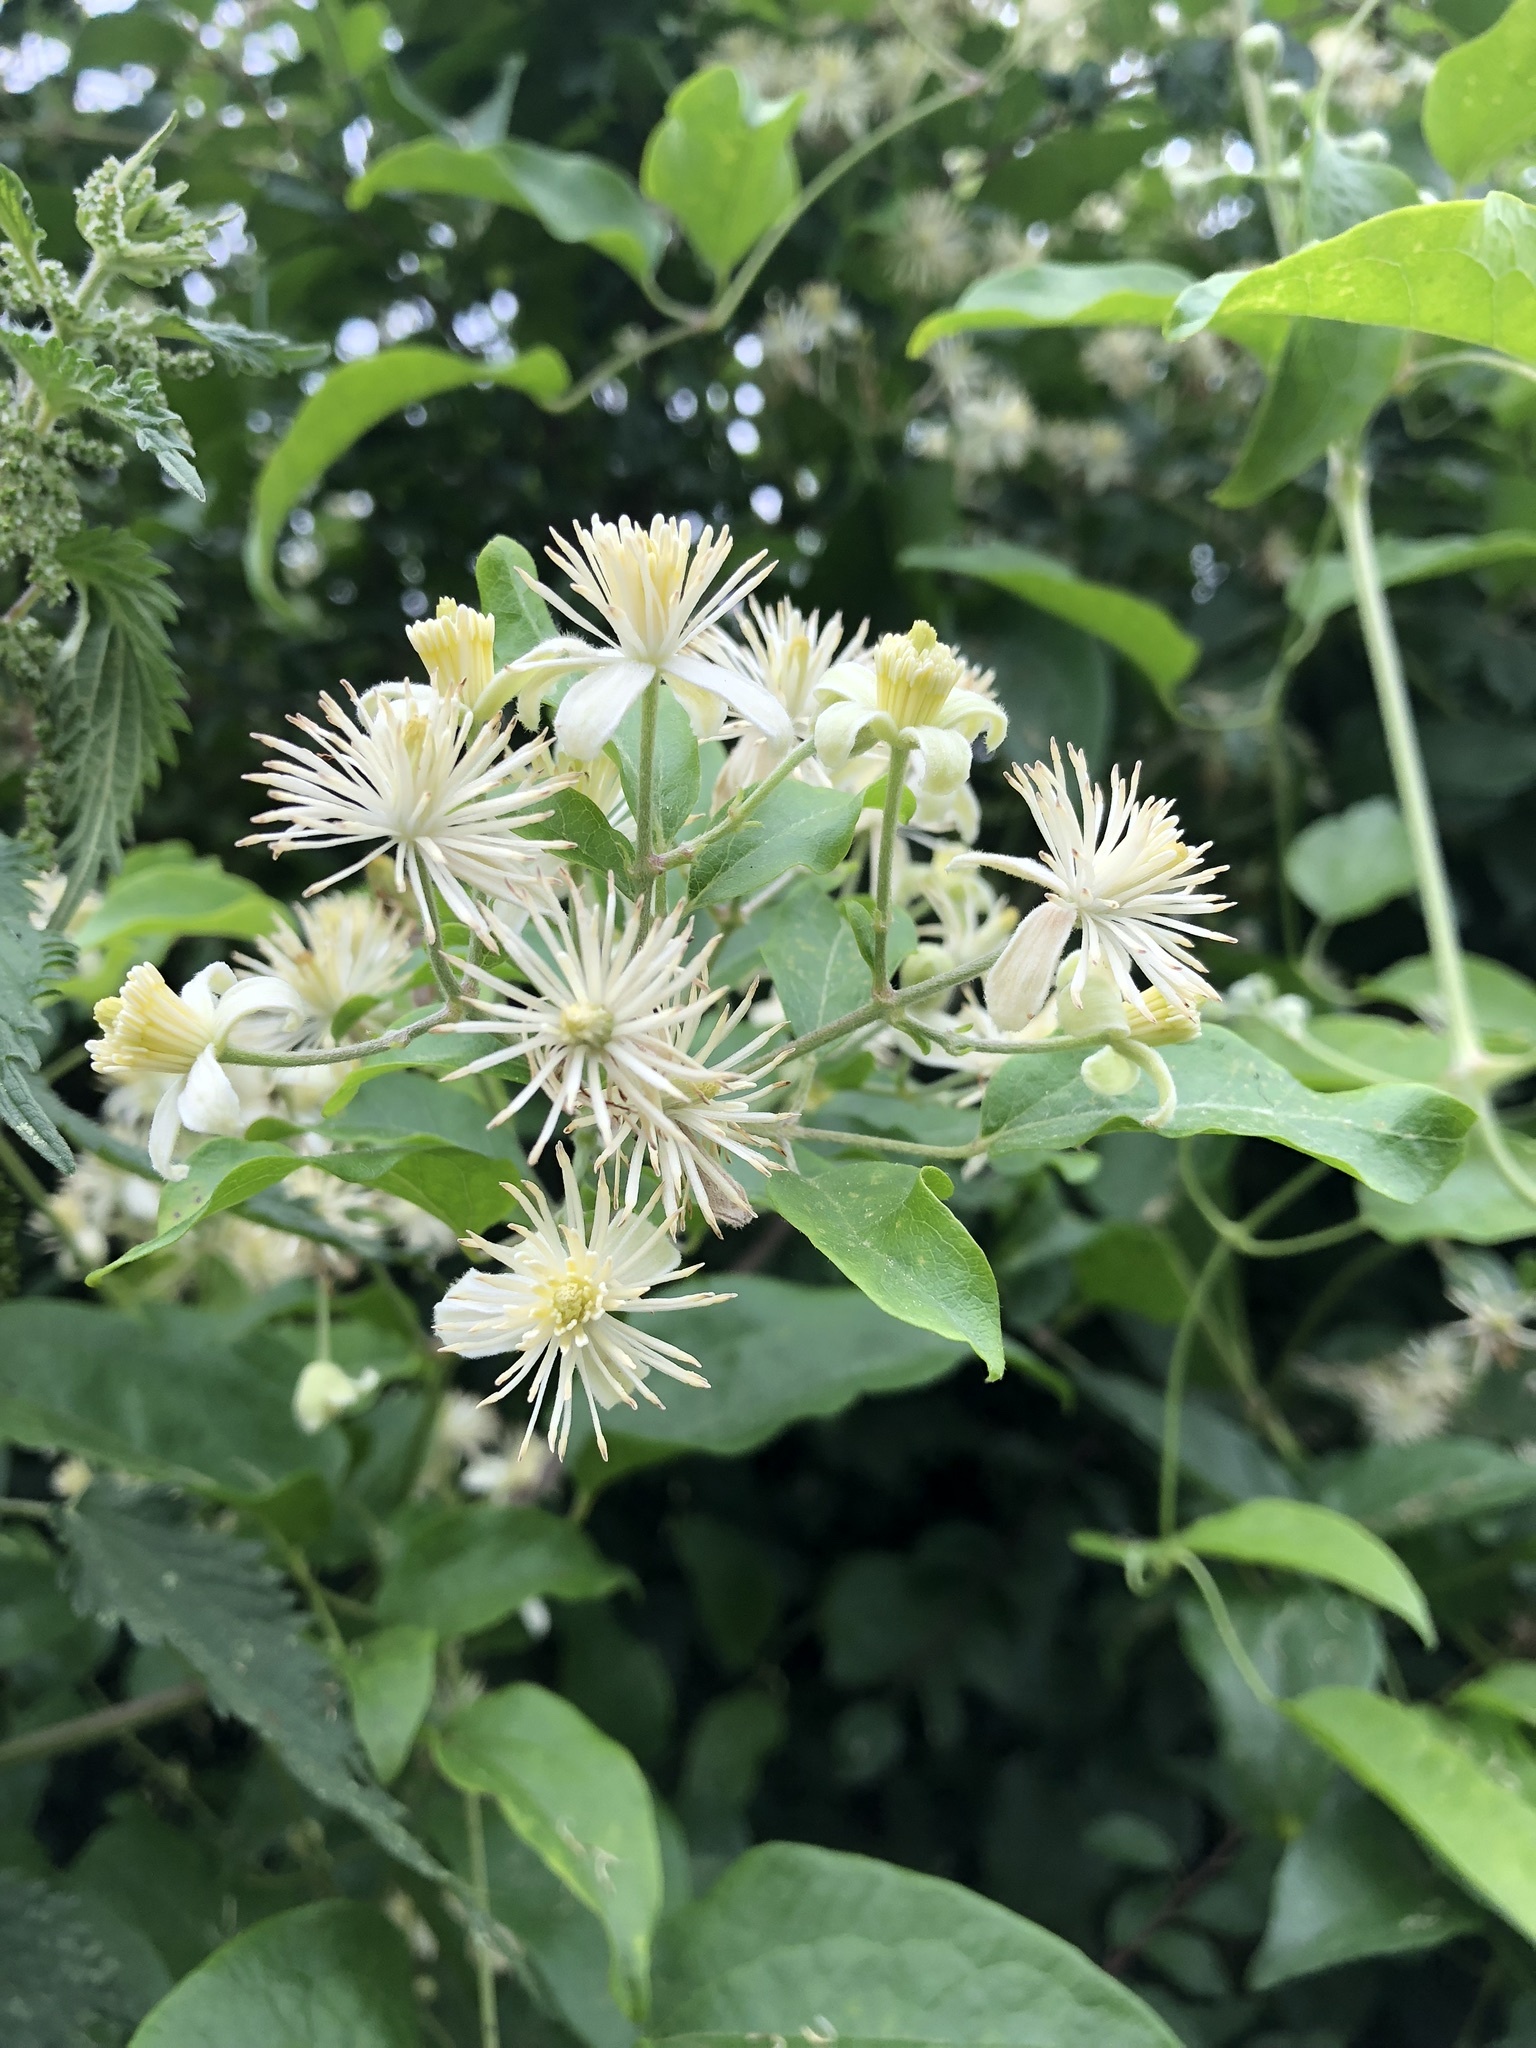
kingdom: Plantae
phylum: Tracheophyta
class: Magnoliopsida
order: Ranunculales
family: Ranunculaceae
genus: Clematis
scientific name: Clematis vitalba
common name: Evergreen clematis
